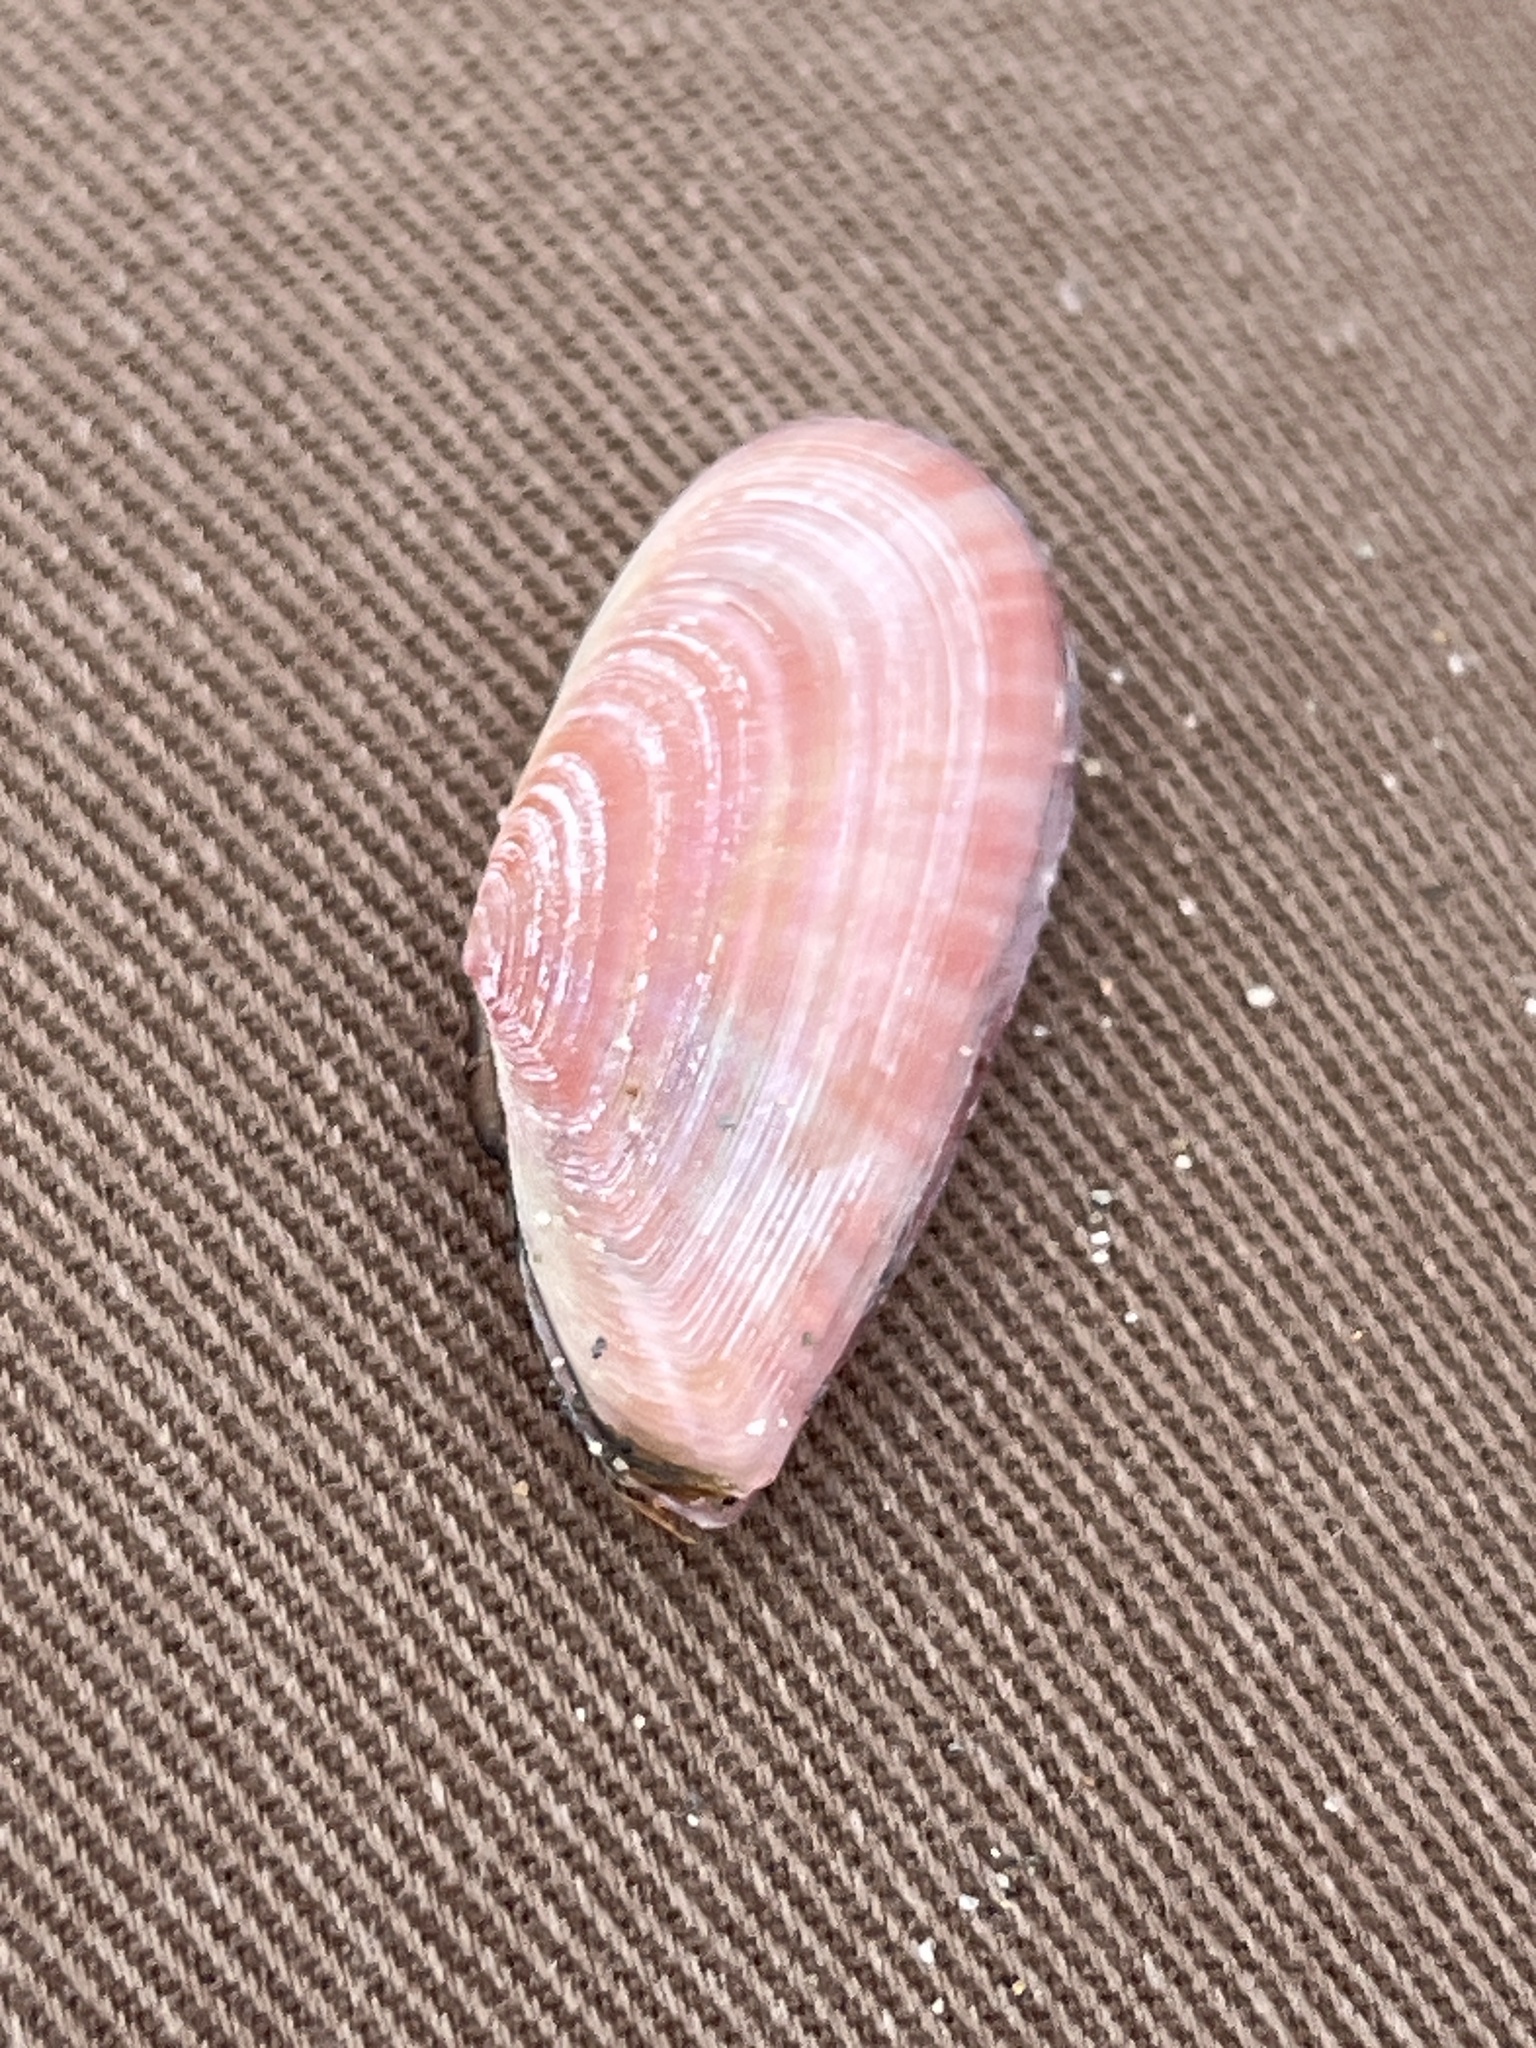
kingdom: Animalia
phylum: Mollusca
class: Bivalvia
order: Cardiida
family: Tellinidae
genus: Moerella
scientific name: Moerella pulchella
